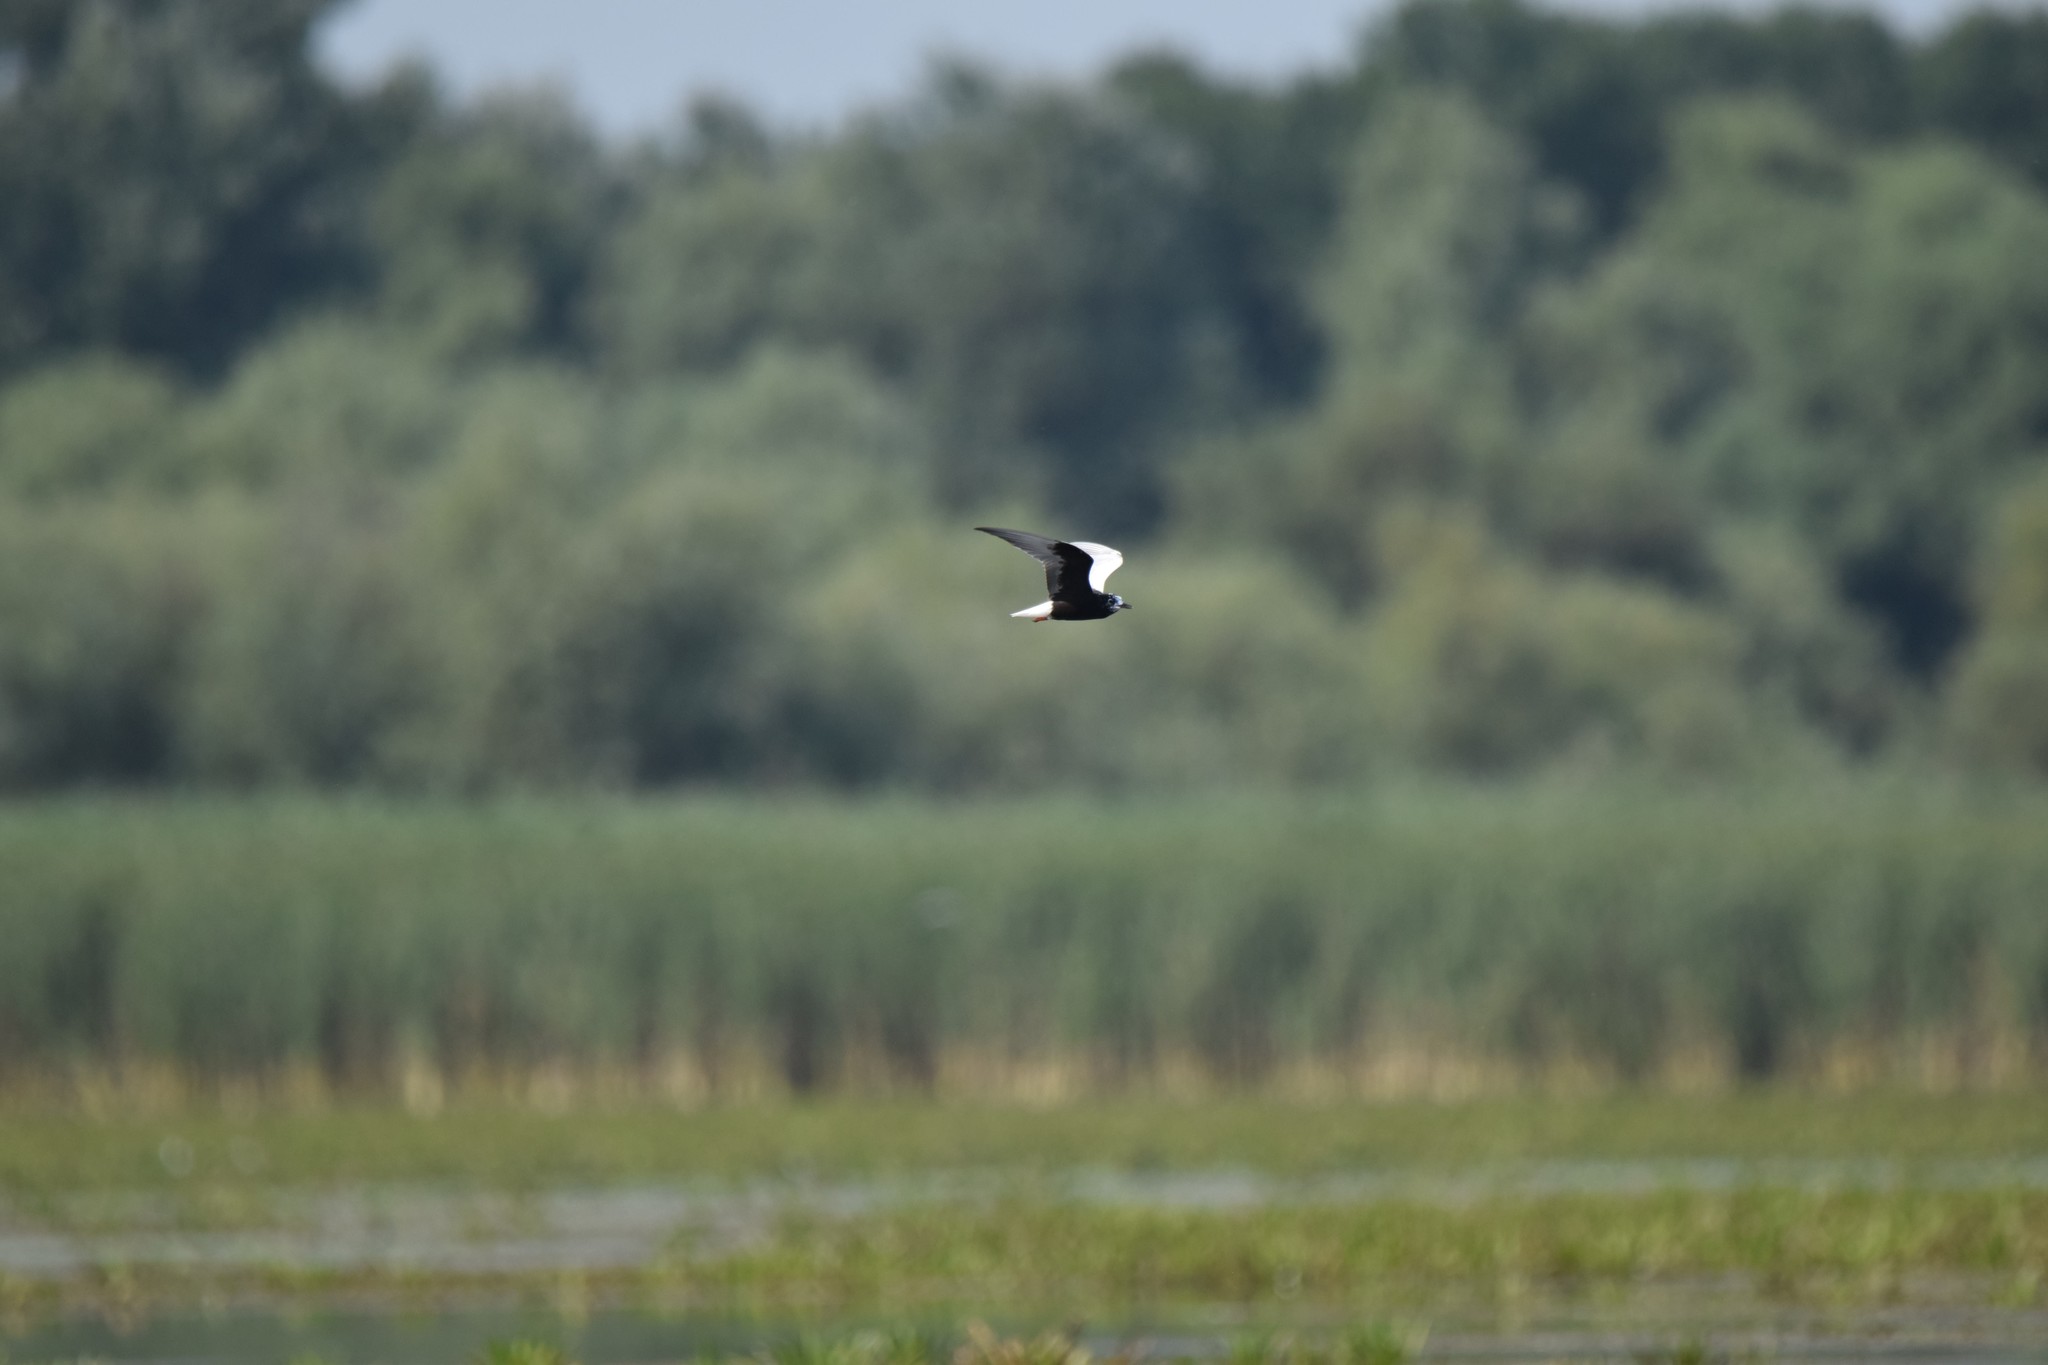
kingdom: Animalia
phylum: Chordata
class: Aves
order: Charadriiformes
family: Laridae
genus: Chlidonias
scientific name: Chlidonias leucopterus
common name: White-winged tern
